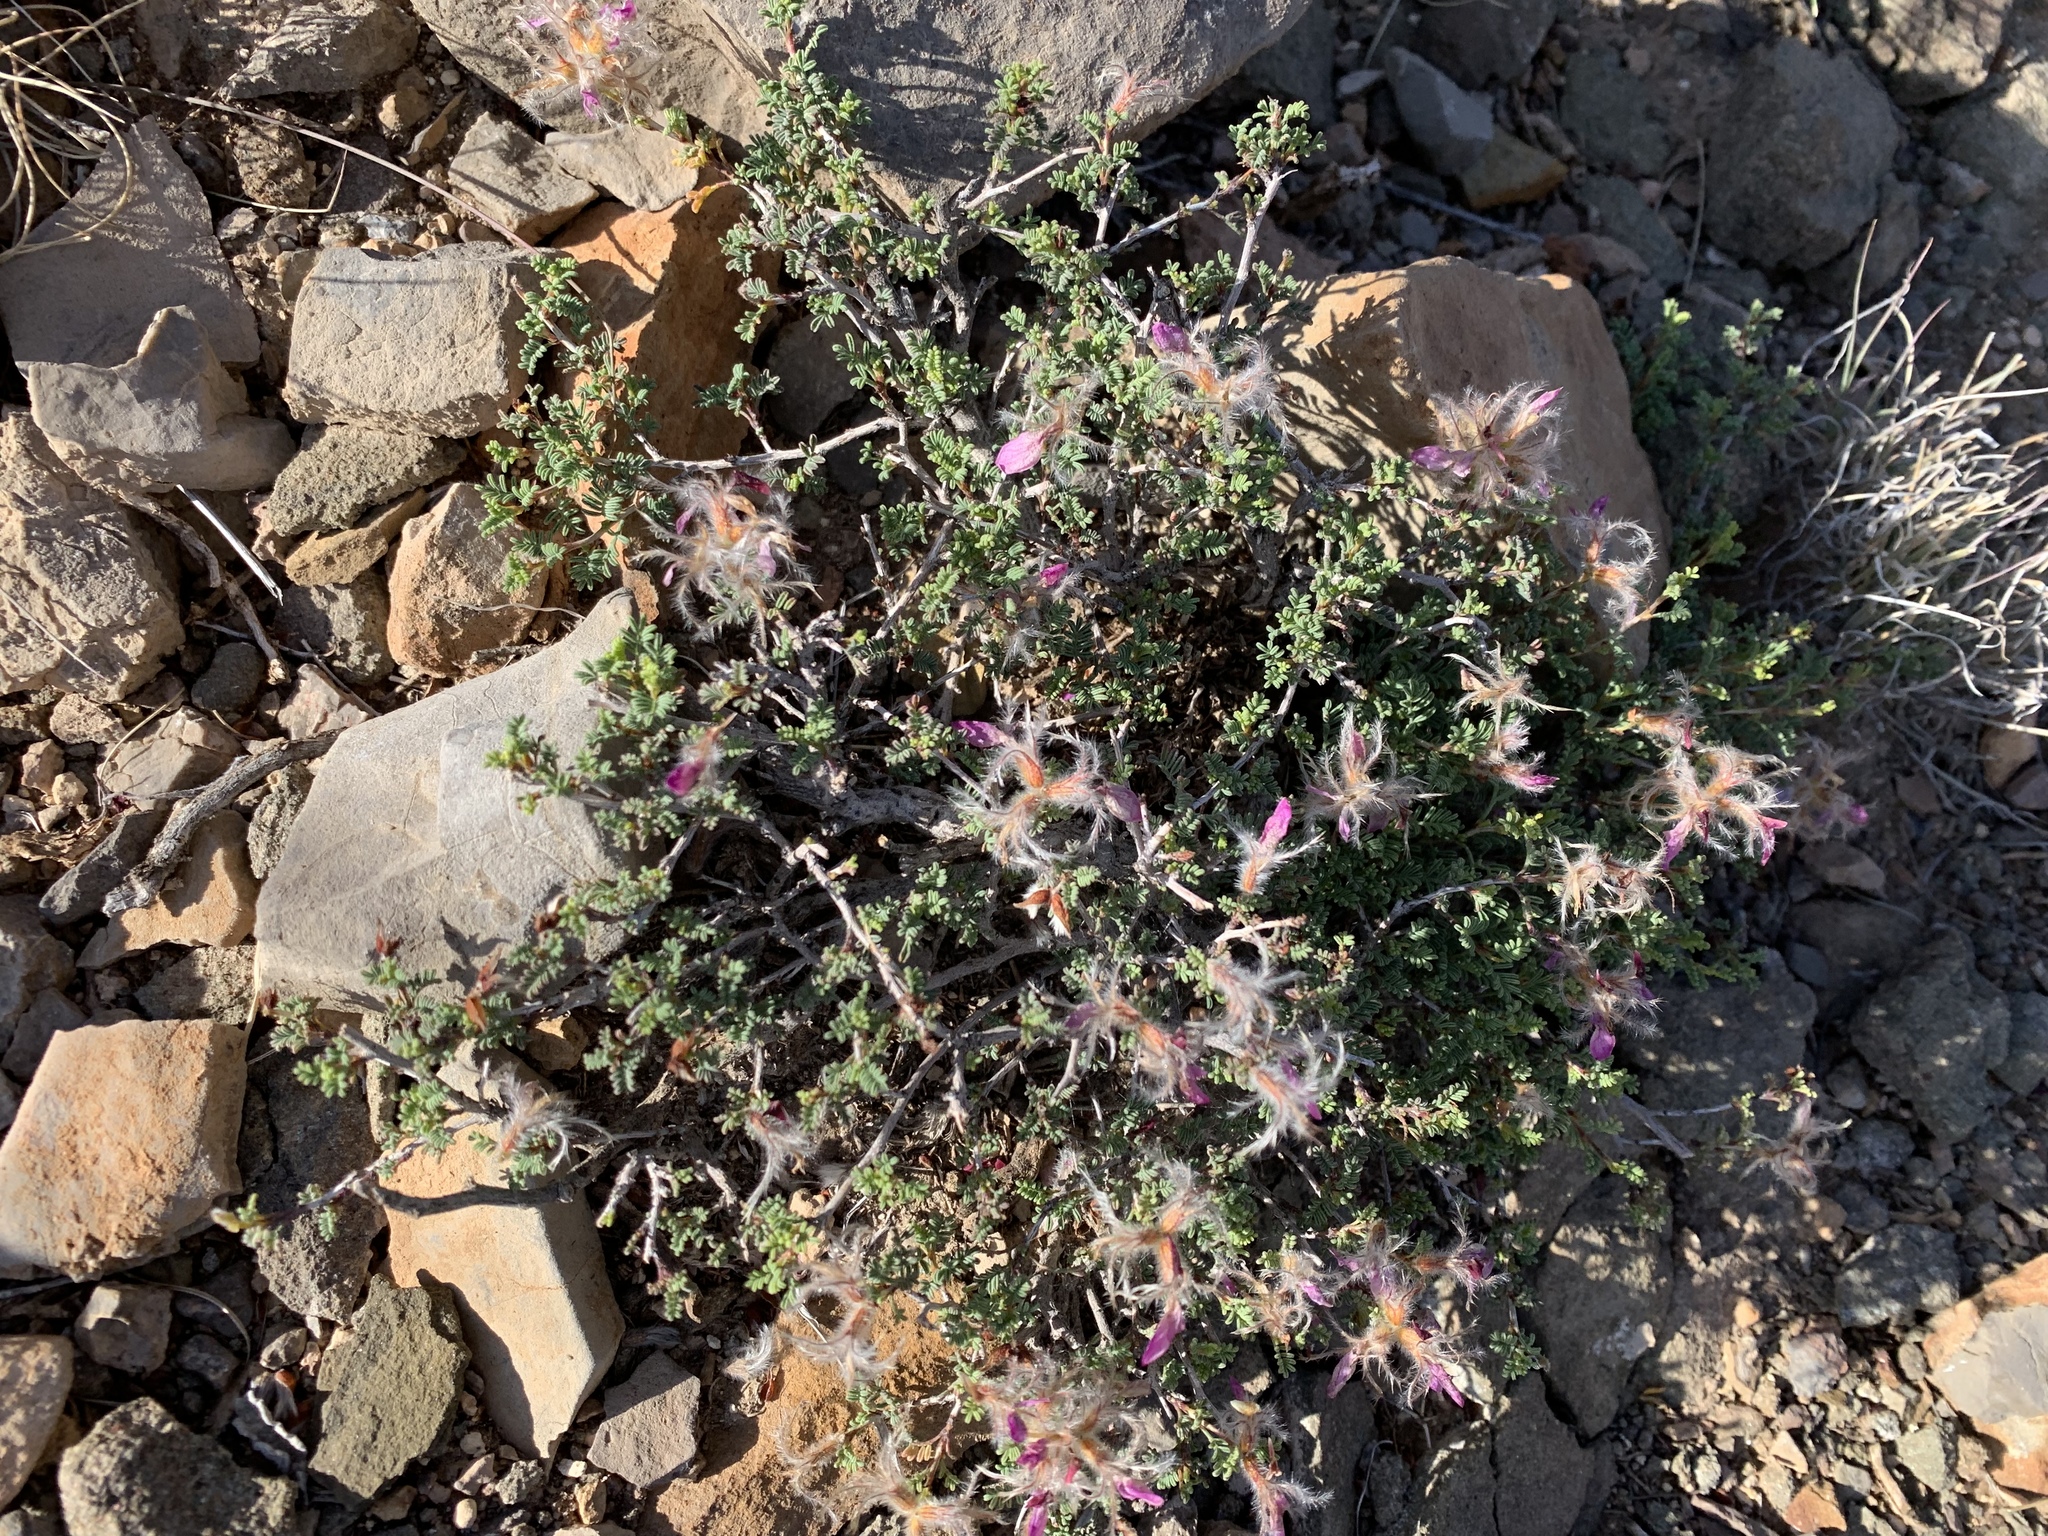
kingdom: Plantae
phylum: Tracheophyta
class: Magnoliopsida
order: Fabales
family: Fabaceae
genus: Dalea
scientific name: Dalea formosa
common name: Feather-plume dalea
